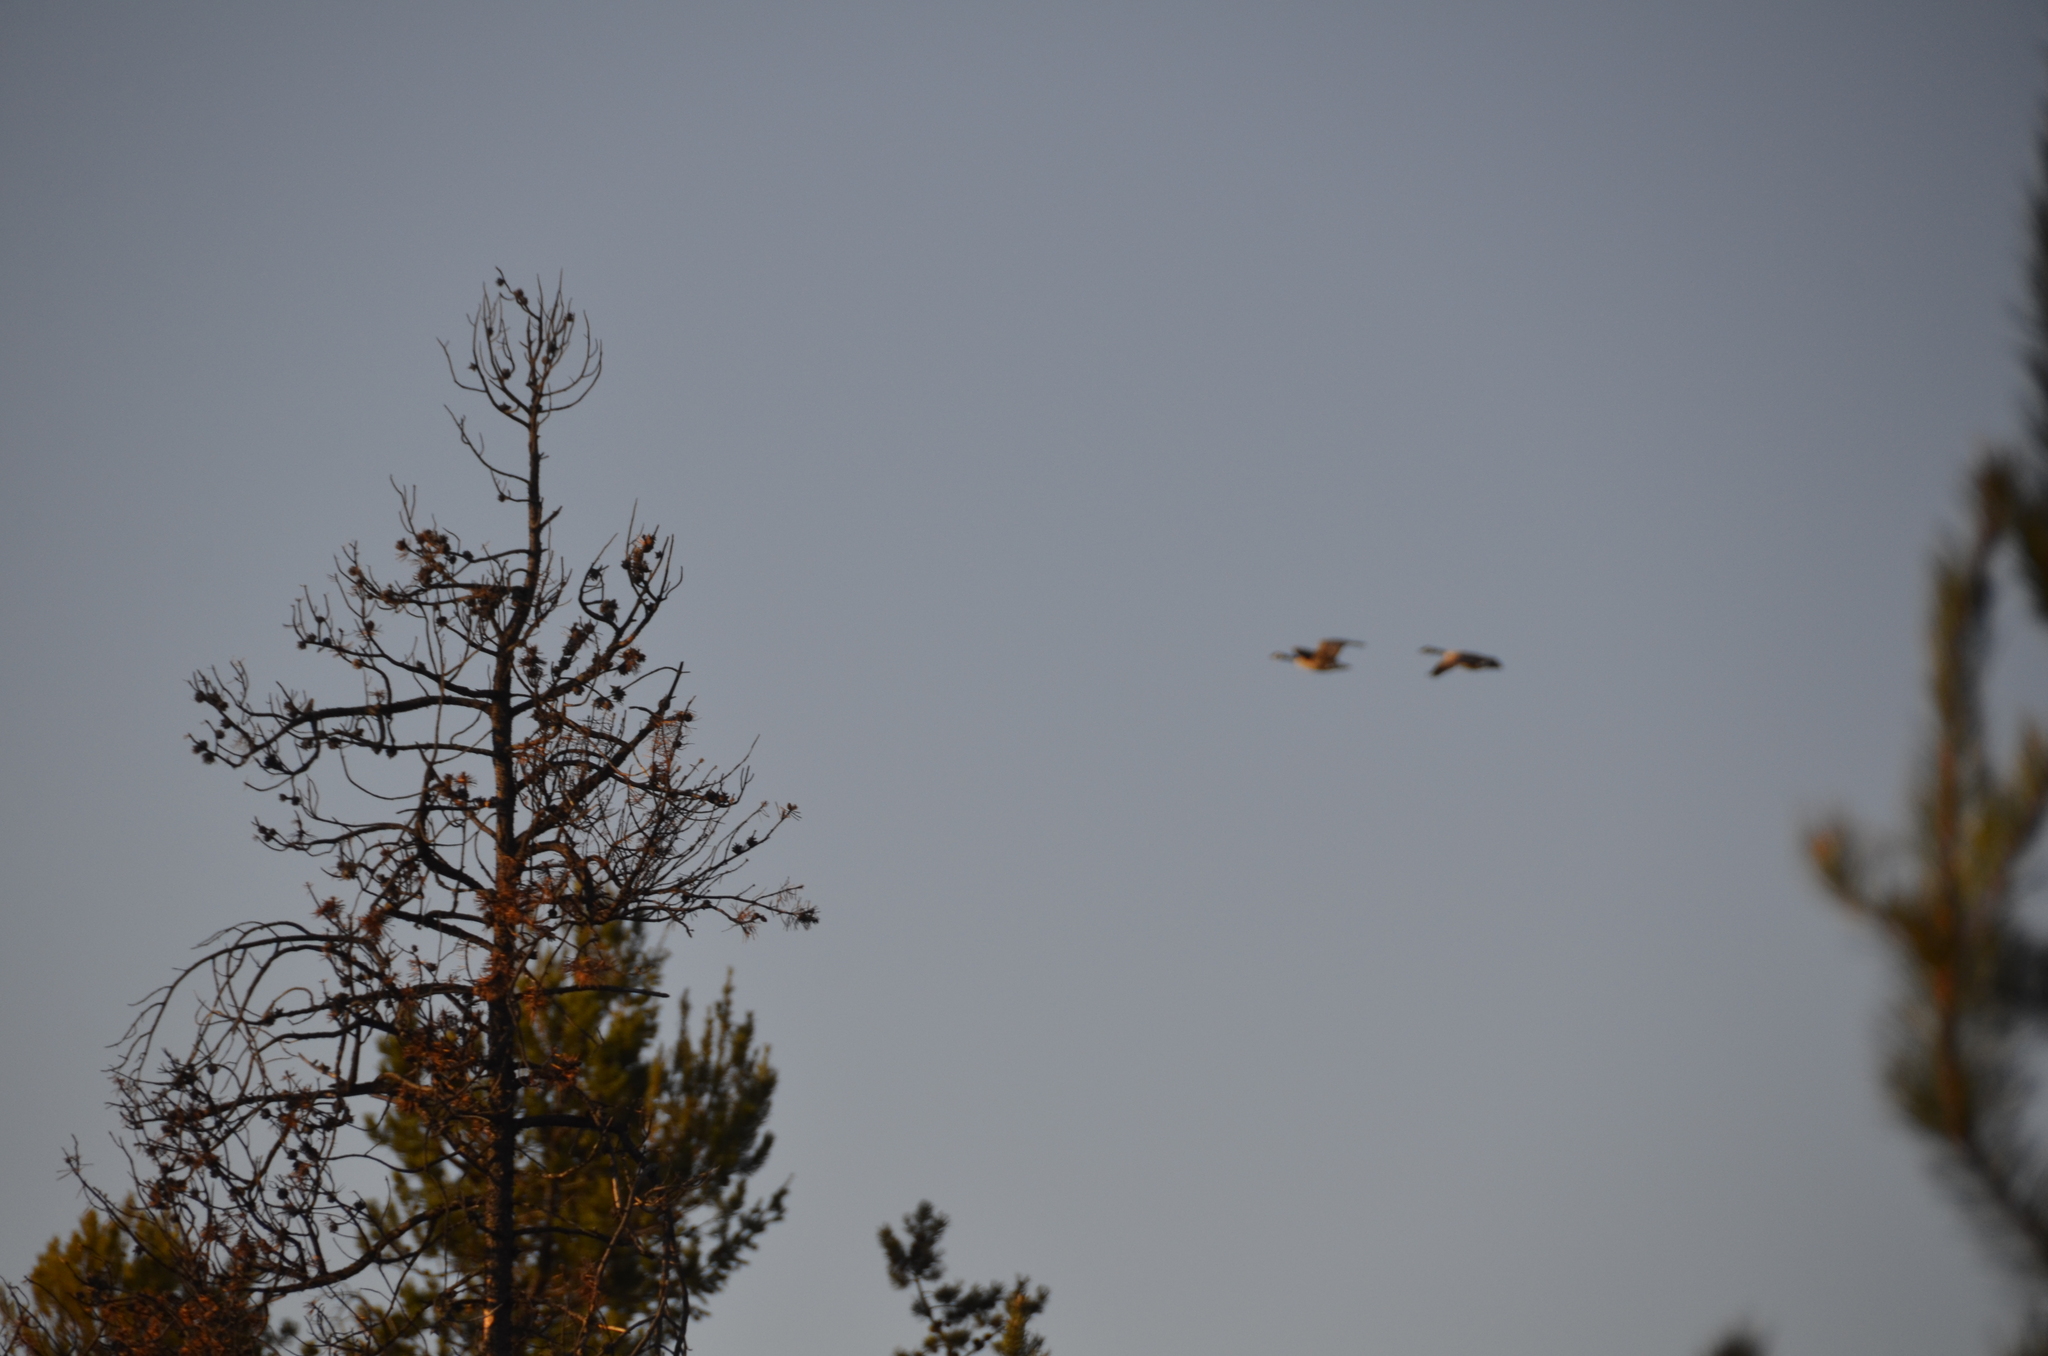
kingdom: Animalia
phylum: Chordata
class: Aves
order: Anseriformes
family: Anatidae
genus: Branta
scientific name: Branta canadensis
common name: Canada goose
